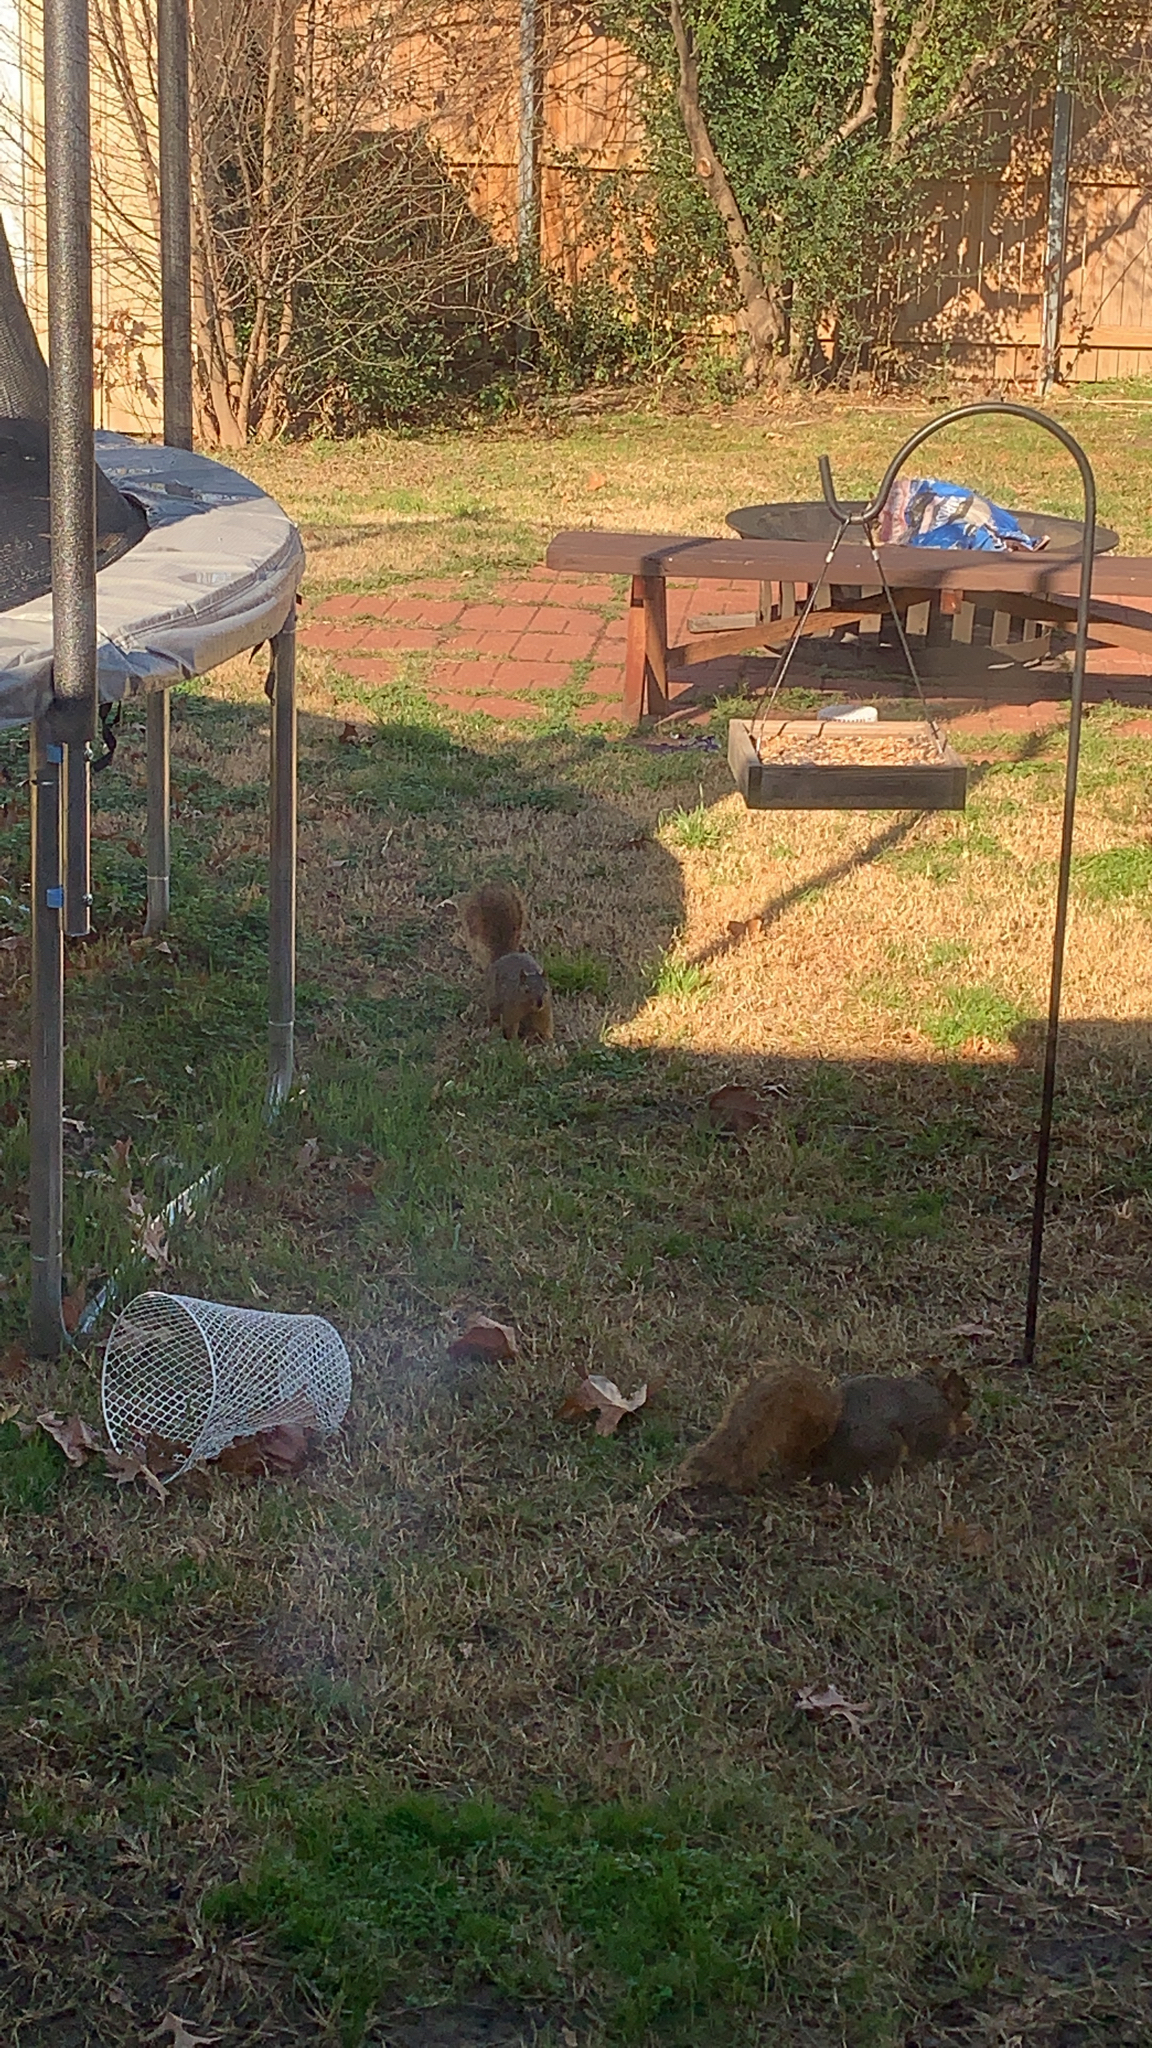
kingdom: Animalia
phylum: Chordata
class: Mammalia
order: Rodentia
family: Sciuridae
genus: Sciurus
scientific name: Sciurus niger
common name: Fox squirrel
